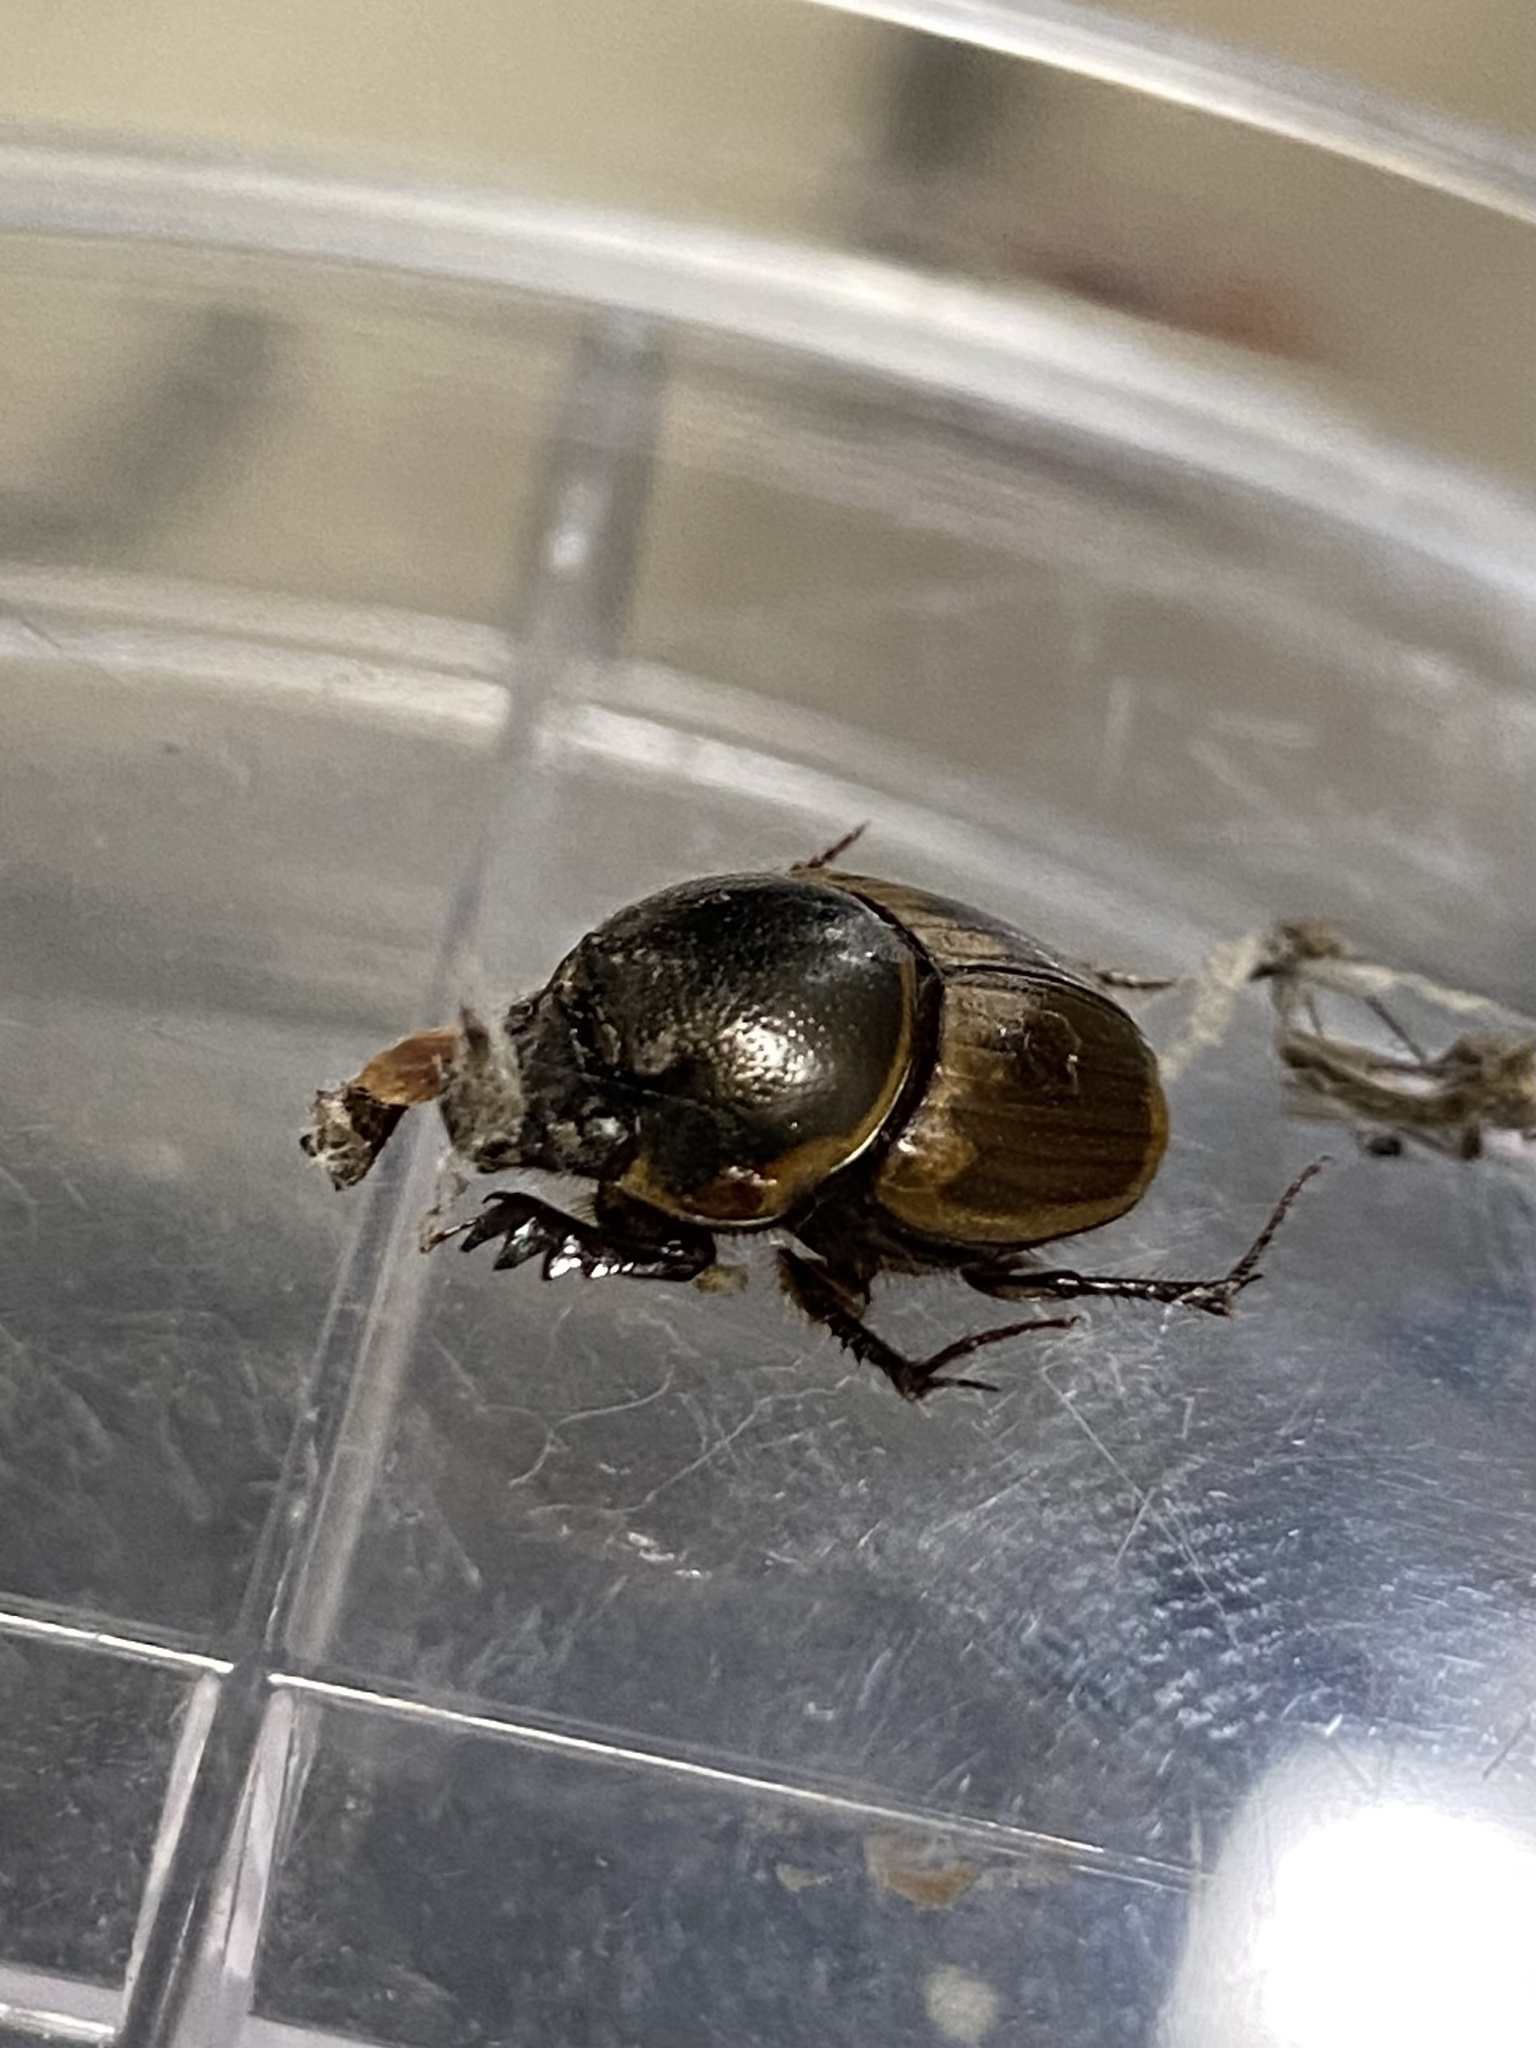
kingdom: Animalia
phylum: Arthropoda
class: Insecta
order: Coleoptera
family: Scarabaeidae
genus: Digitonthophagus
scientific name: Digitonthophagus gazella
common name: Brown dung beetle
